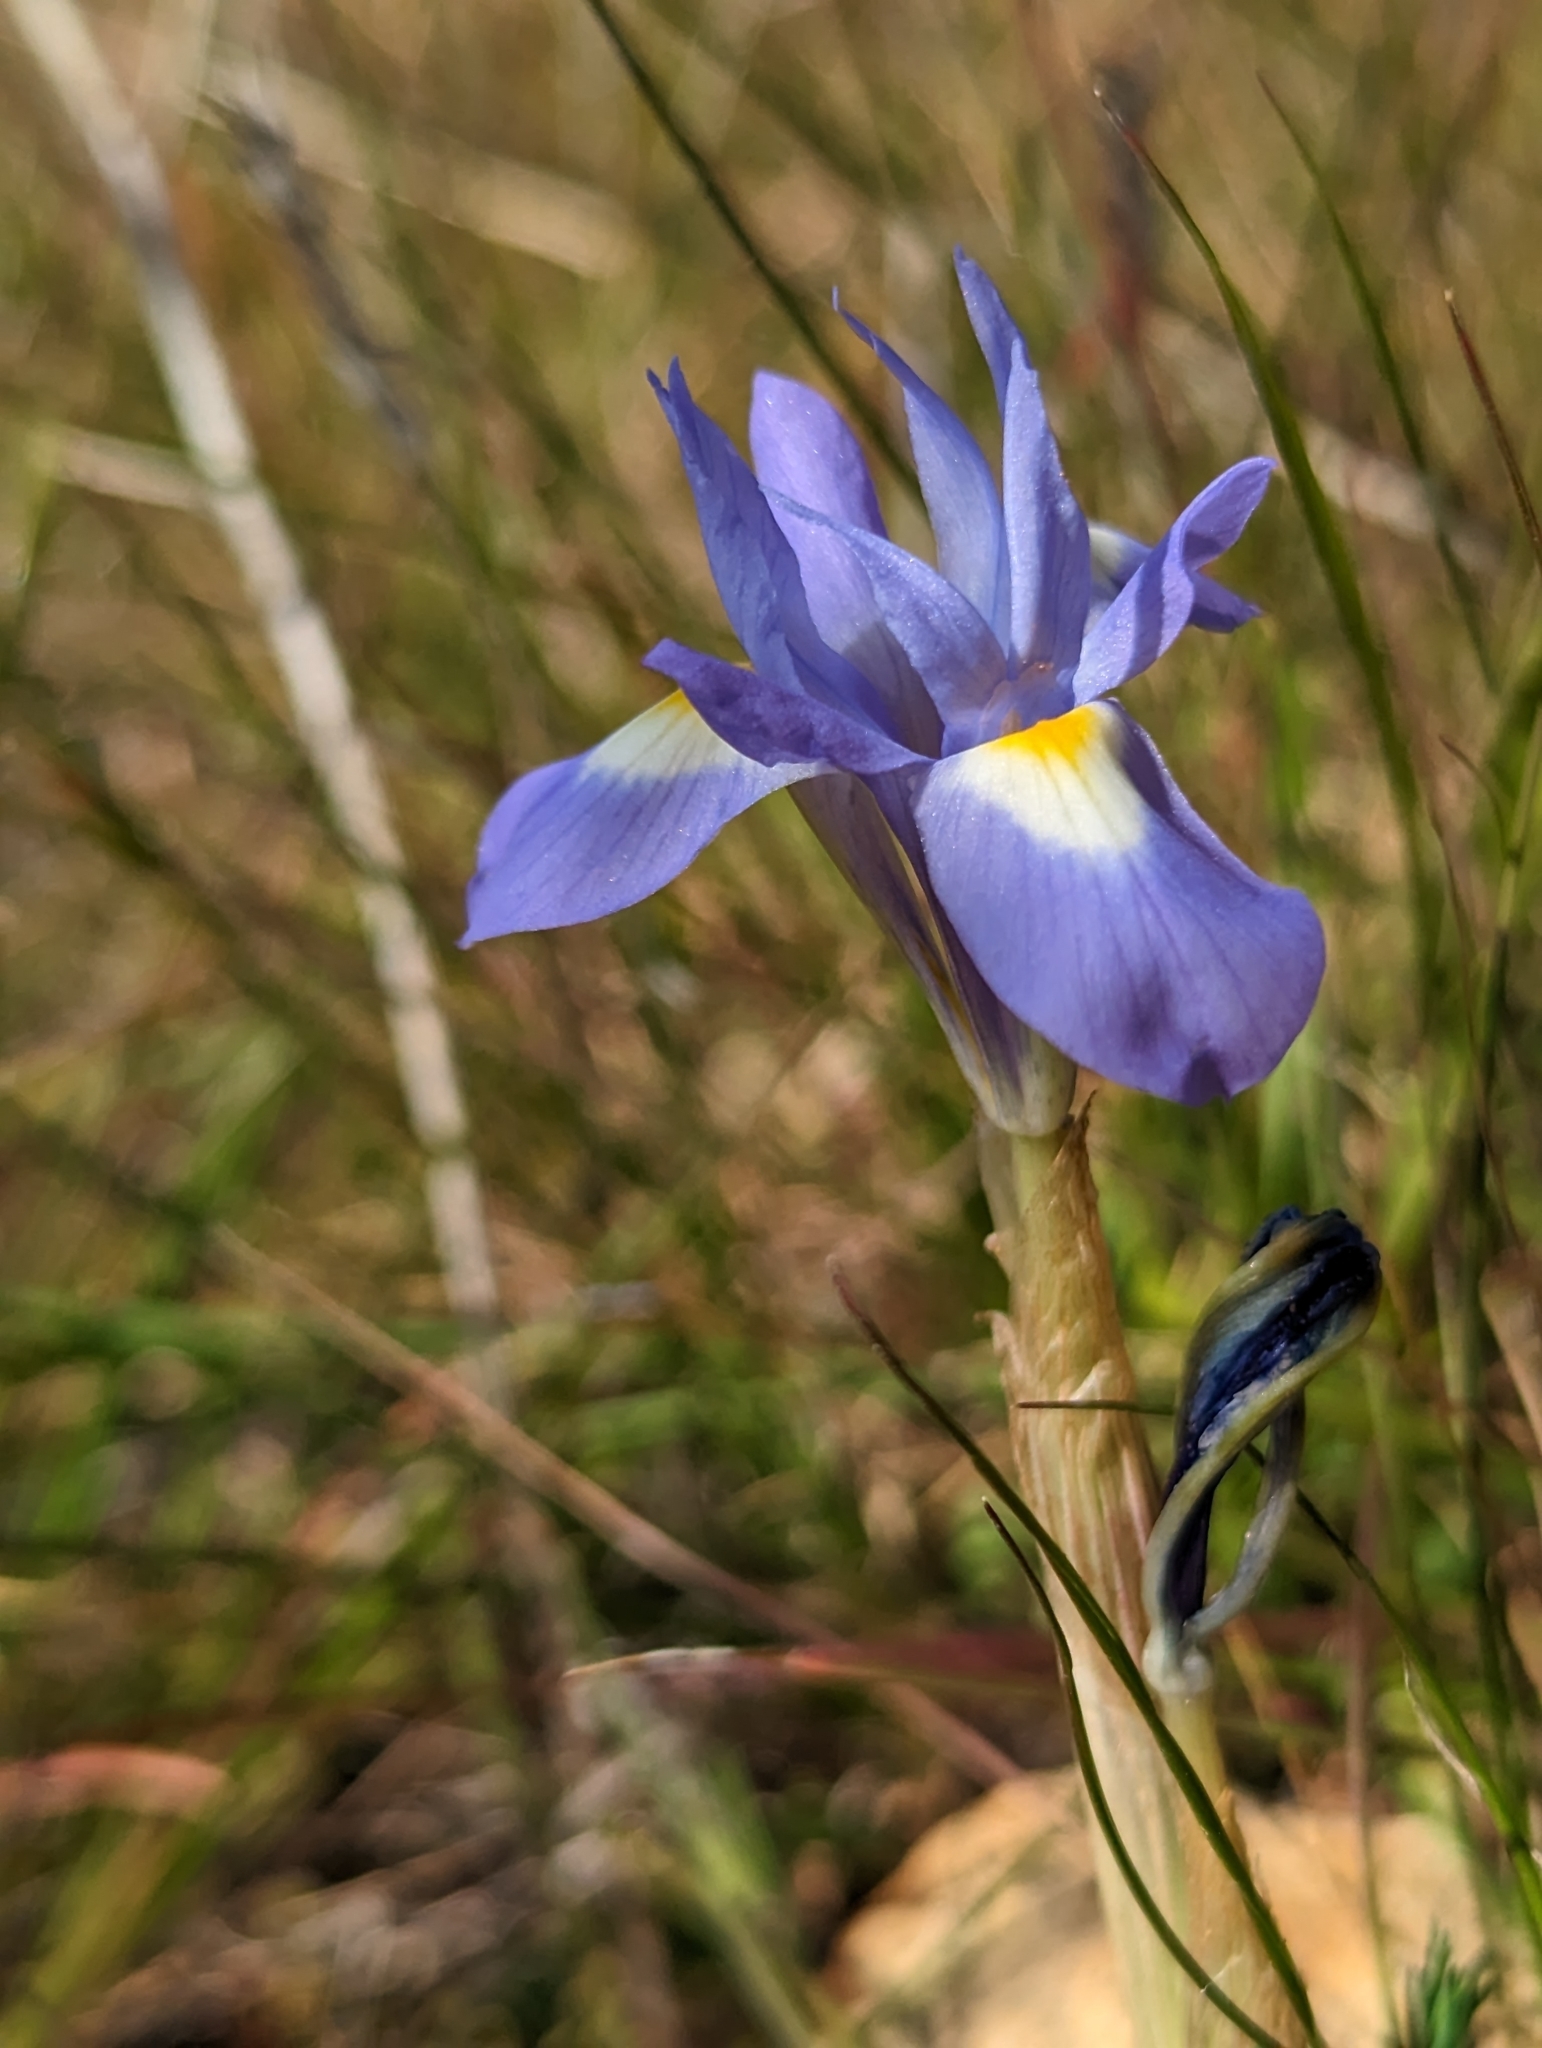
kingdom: Plantae
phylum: Tracheophyta
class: Liliopsida
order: Asparagales
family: Iridaceae
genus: Moraea
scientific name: Moraea sisyrinchium
